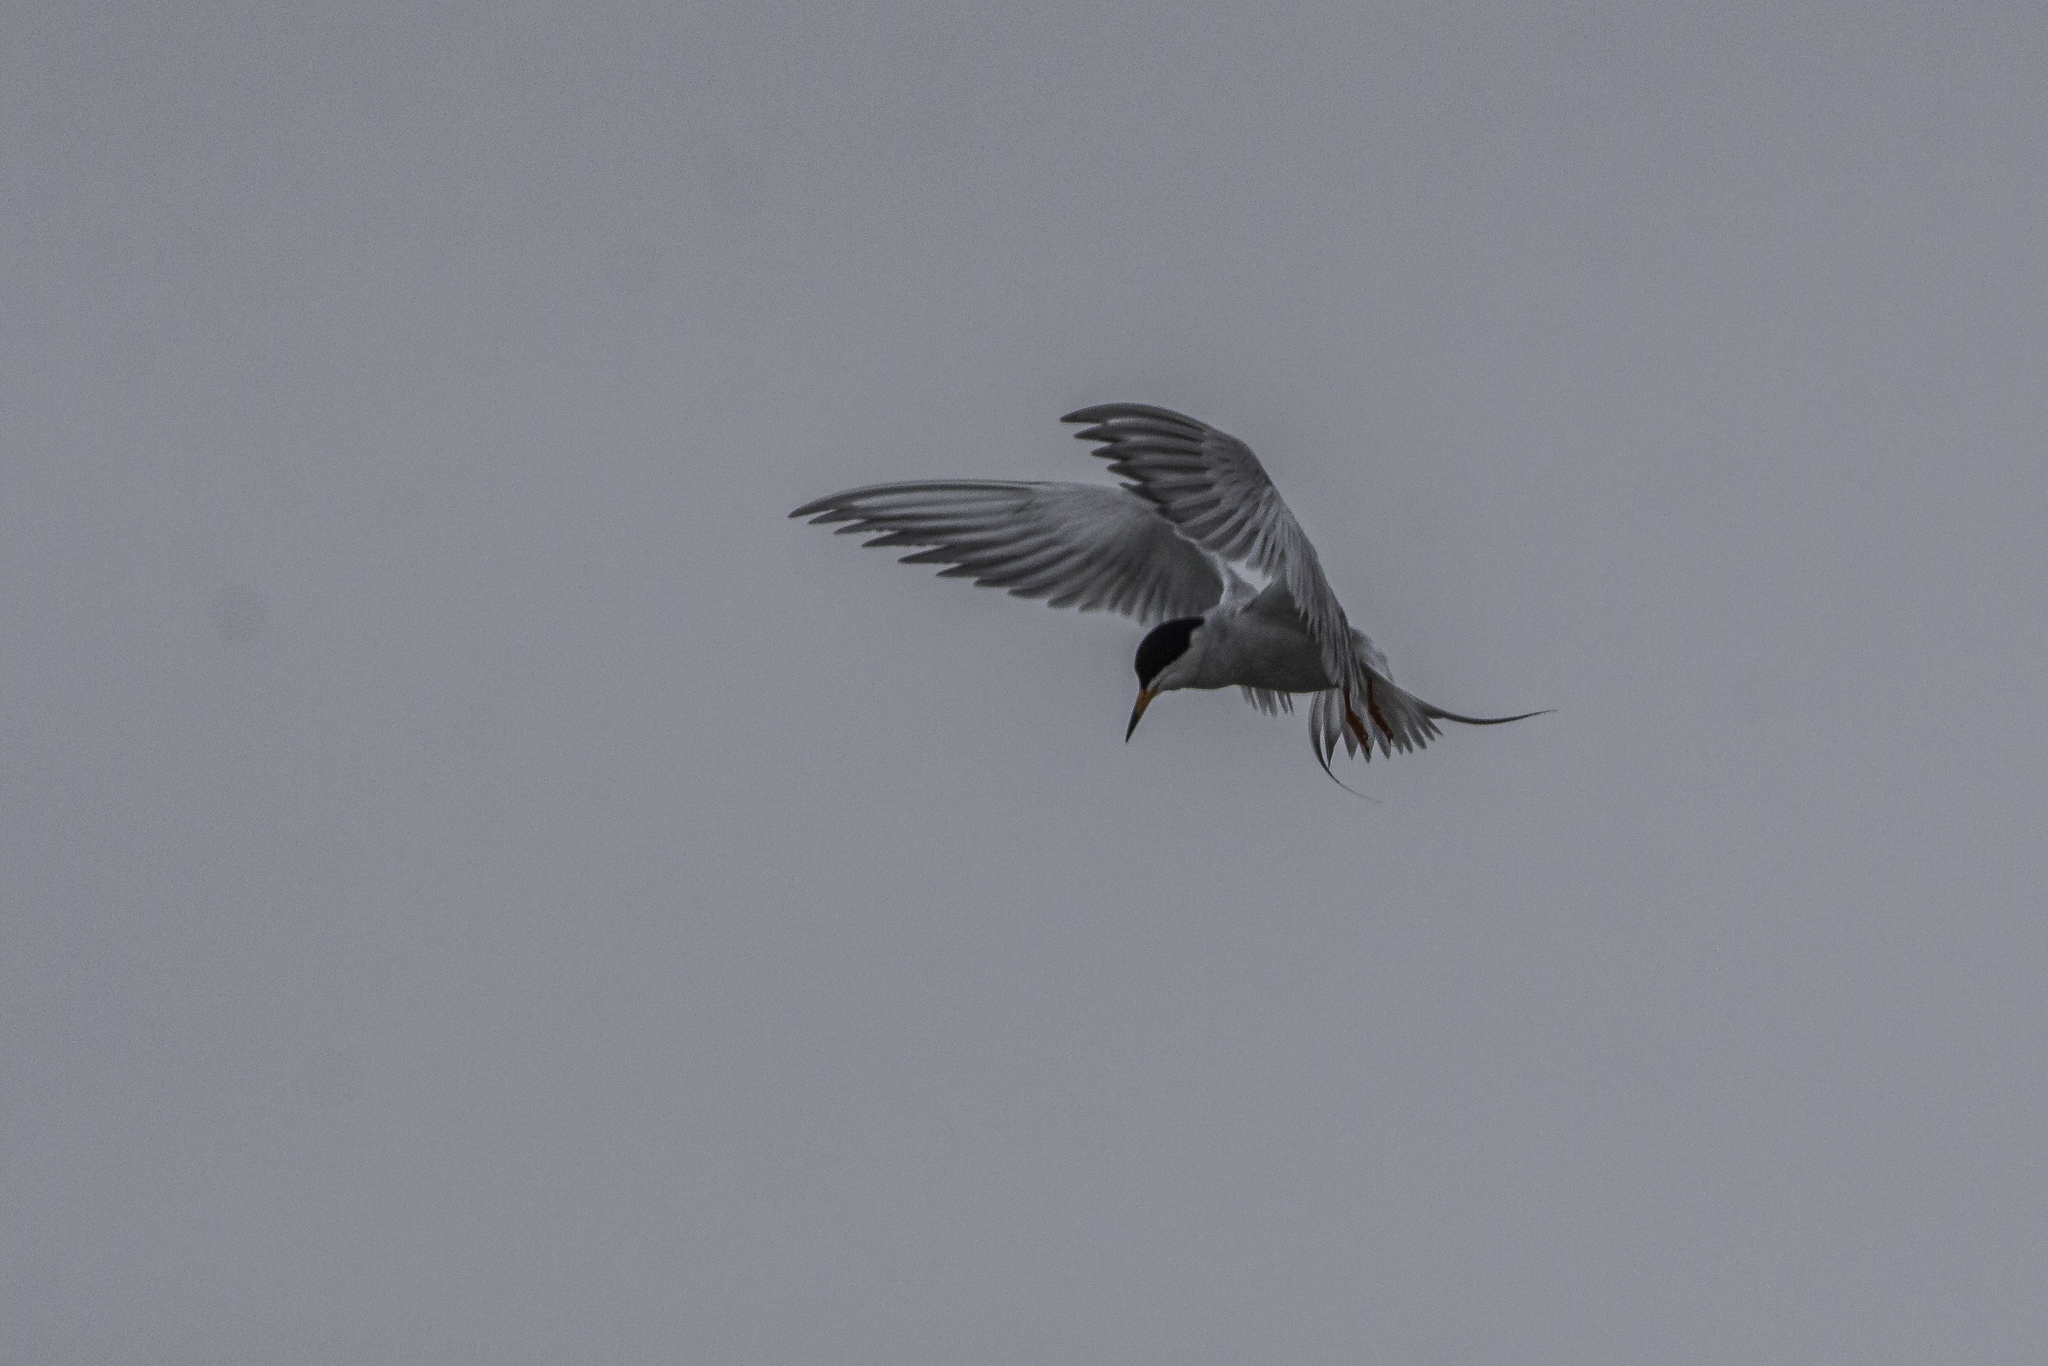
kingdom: Animalia
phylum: Chordata
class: Aves
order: Charadriiformes
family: Laridae
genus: Sterna
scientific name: Sterna forsteri
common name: Forster's tern
